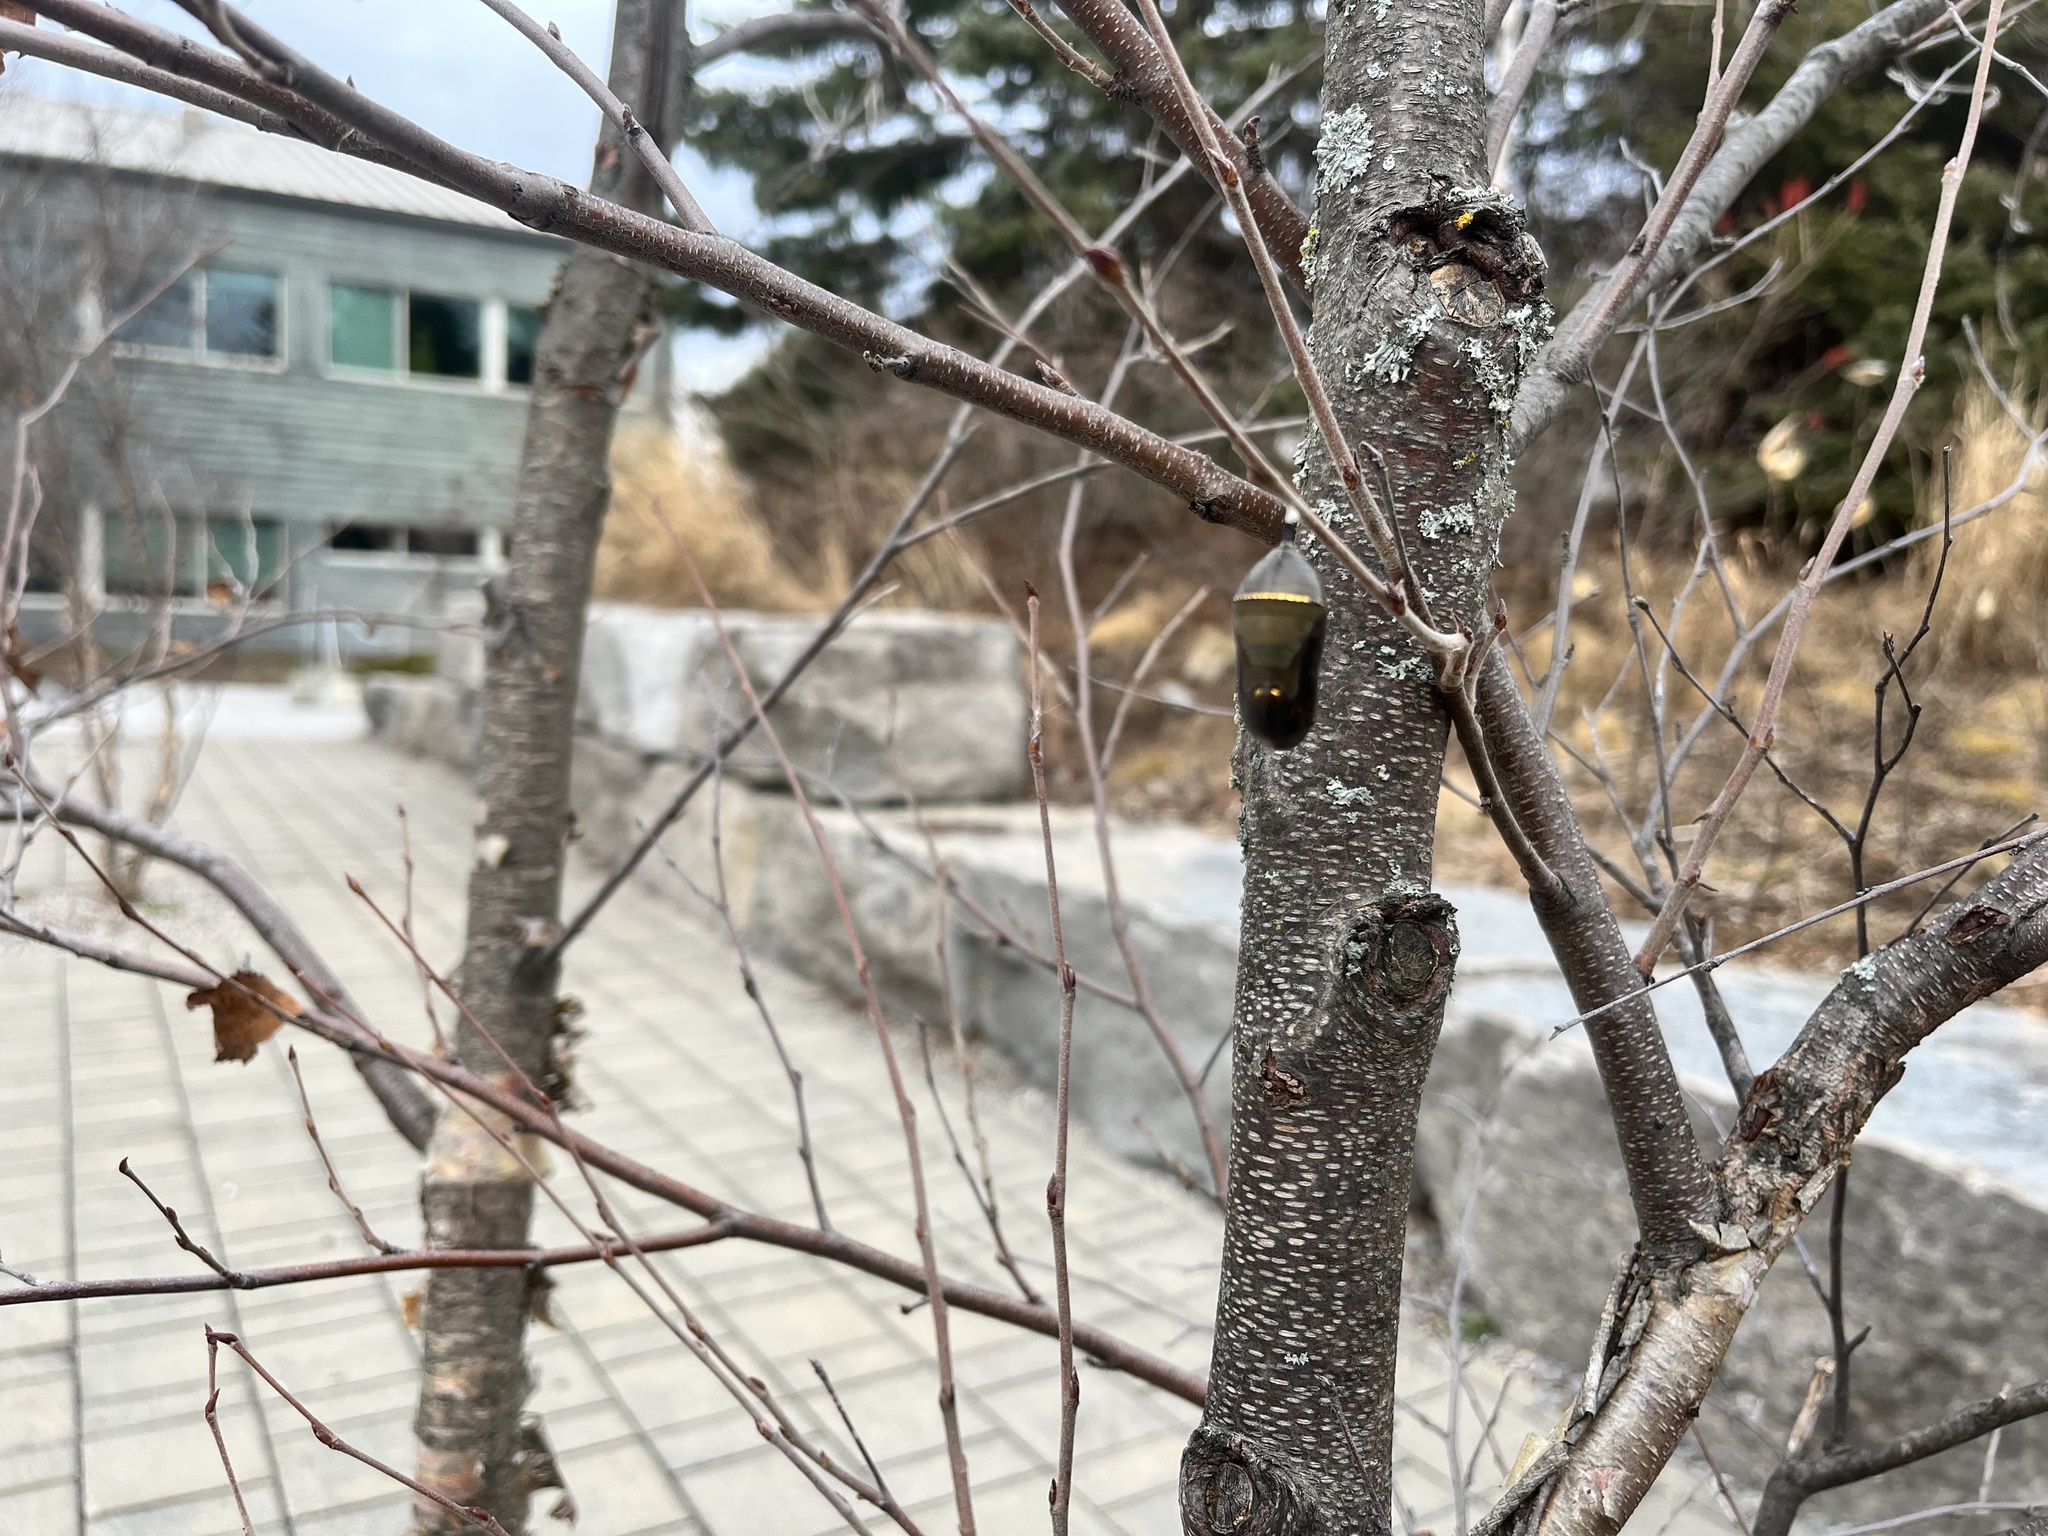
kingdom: Animalia
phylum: Arthropoda
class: Insecta
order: Lepidoptera
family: Nymphalidae
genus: Danaus
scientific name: Danaus plexippus
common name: Monarch
